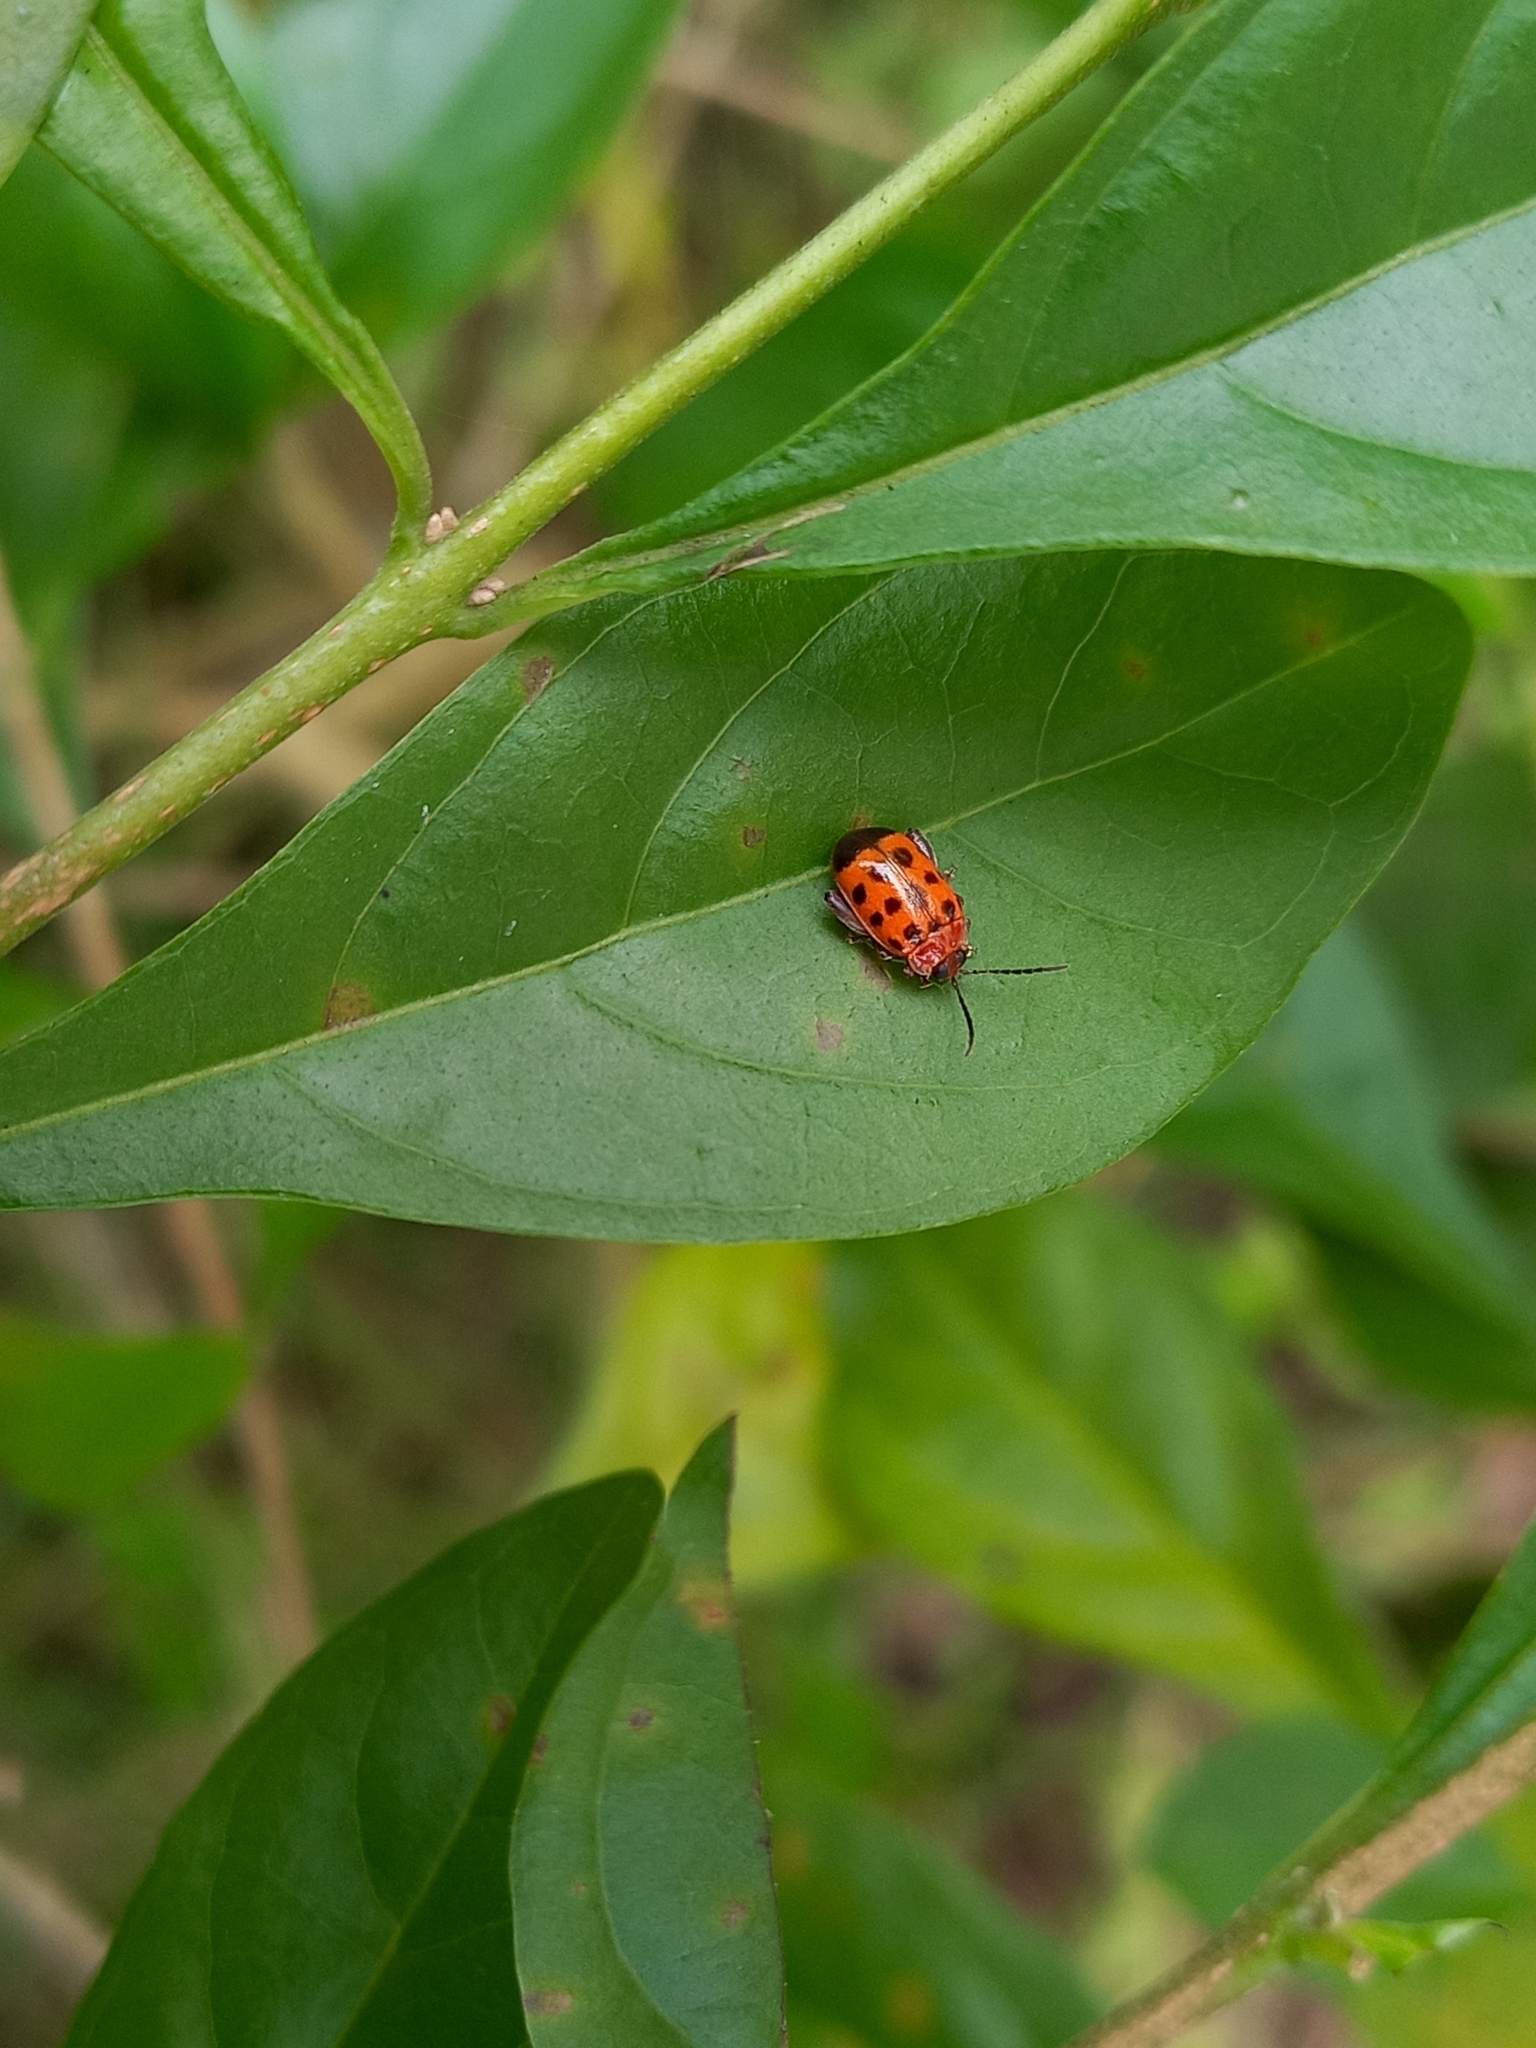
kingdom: Animalia
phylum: Arthropoda
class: Insecta
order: Coleoptera
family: Chrysomelidae
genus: Alagoasa
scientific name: Alagoasa trifasciata
